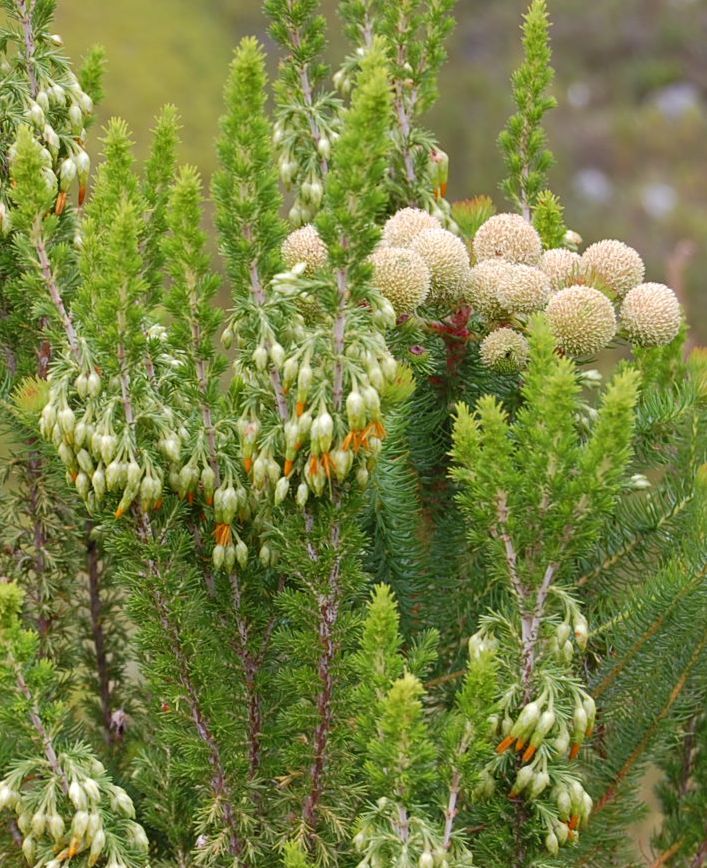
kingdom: Plantae
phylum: Tracheophyta
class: Magnoliopsida
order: Ericales
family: Ericaceae
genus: Erica
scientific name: Erica intermedia
